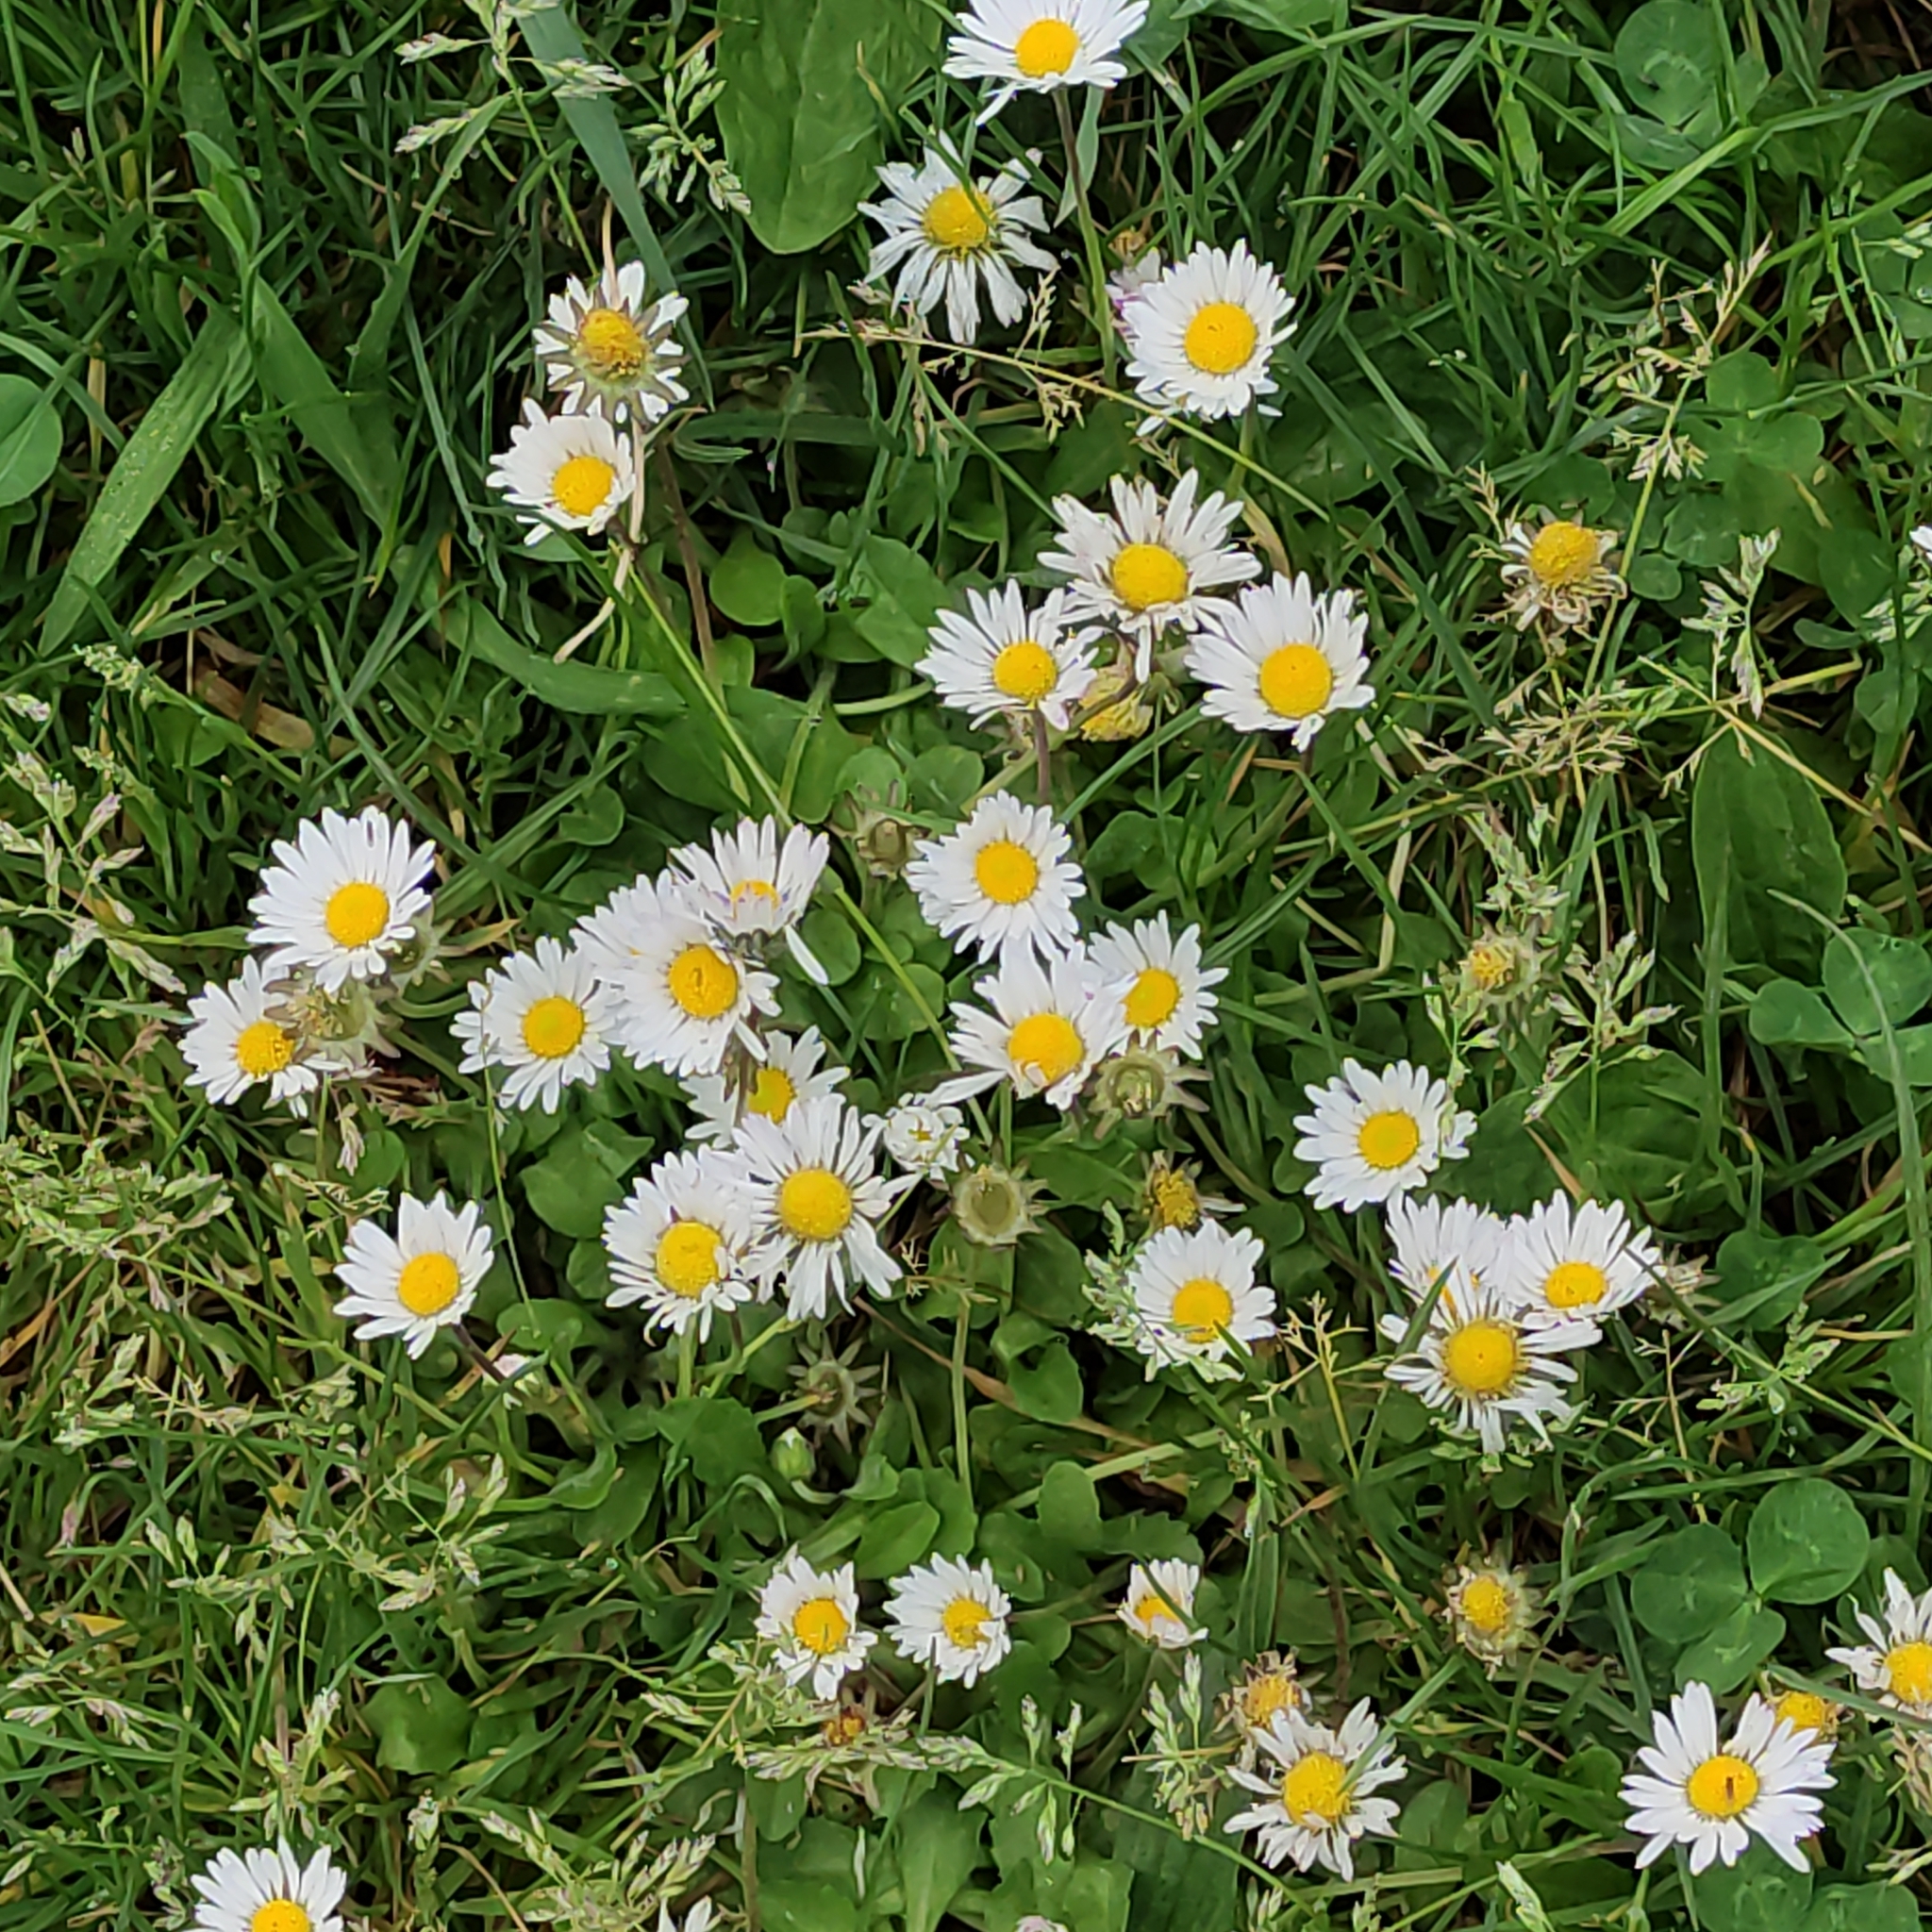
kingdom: Plantae
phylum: Tracheophyta
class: Magnoliopsida
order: Asterales
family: Asteraceae
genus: Bellis
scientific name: Bellis perennis
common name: Lawndaisy
